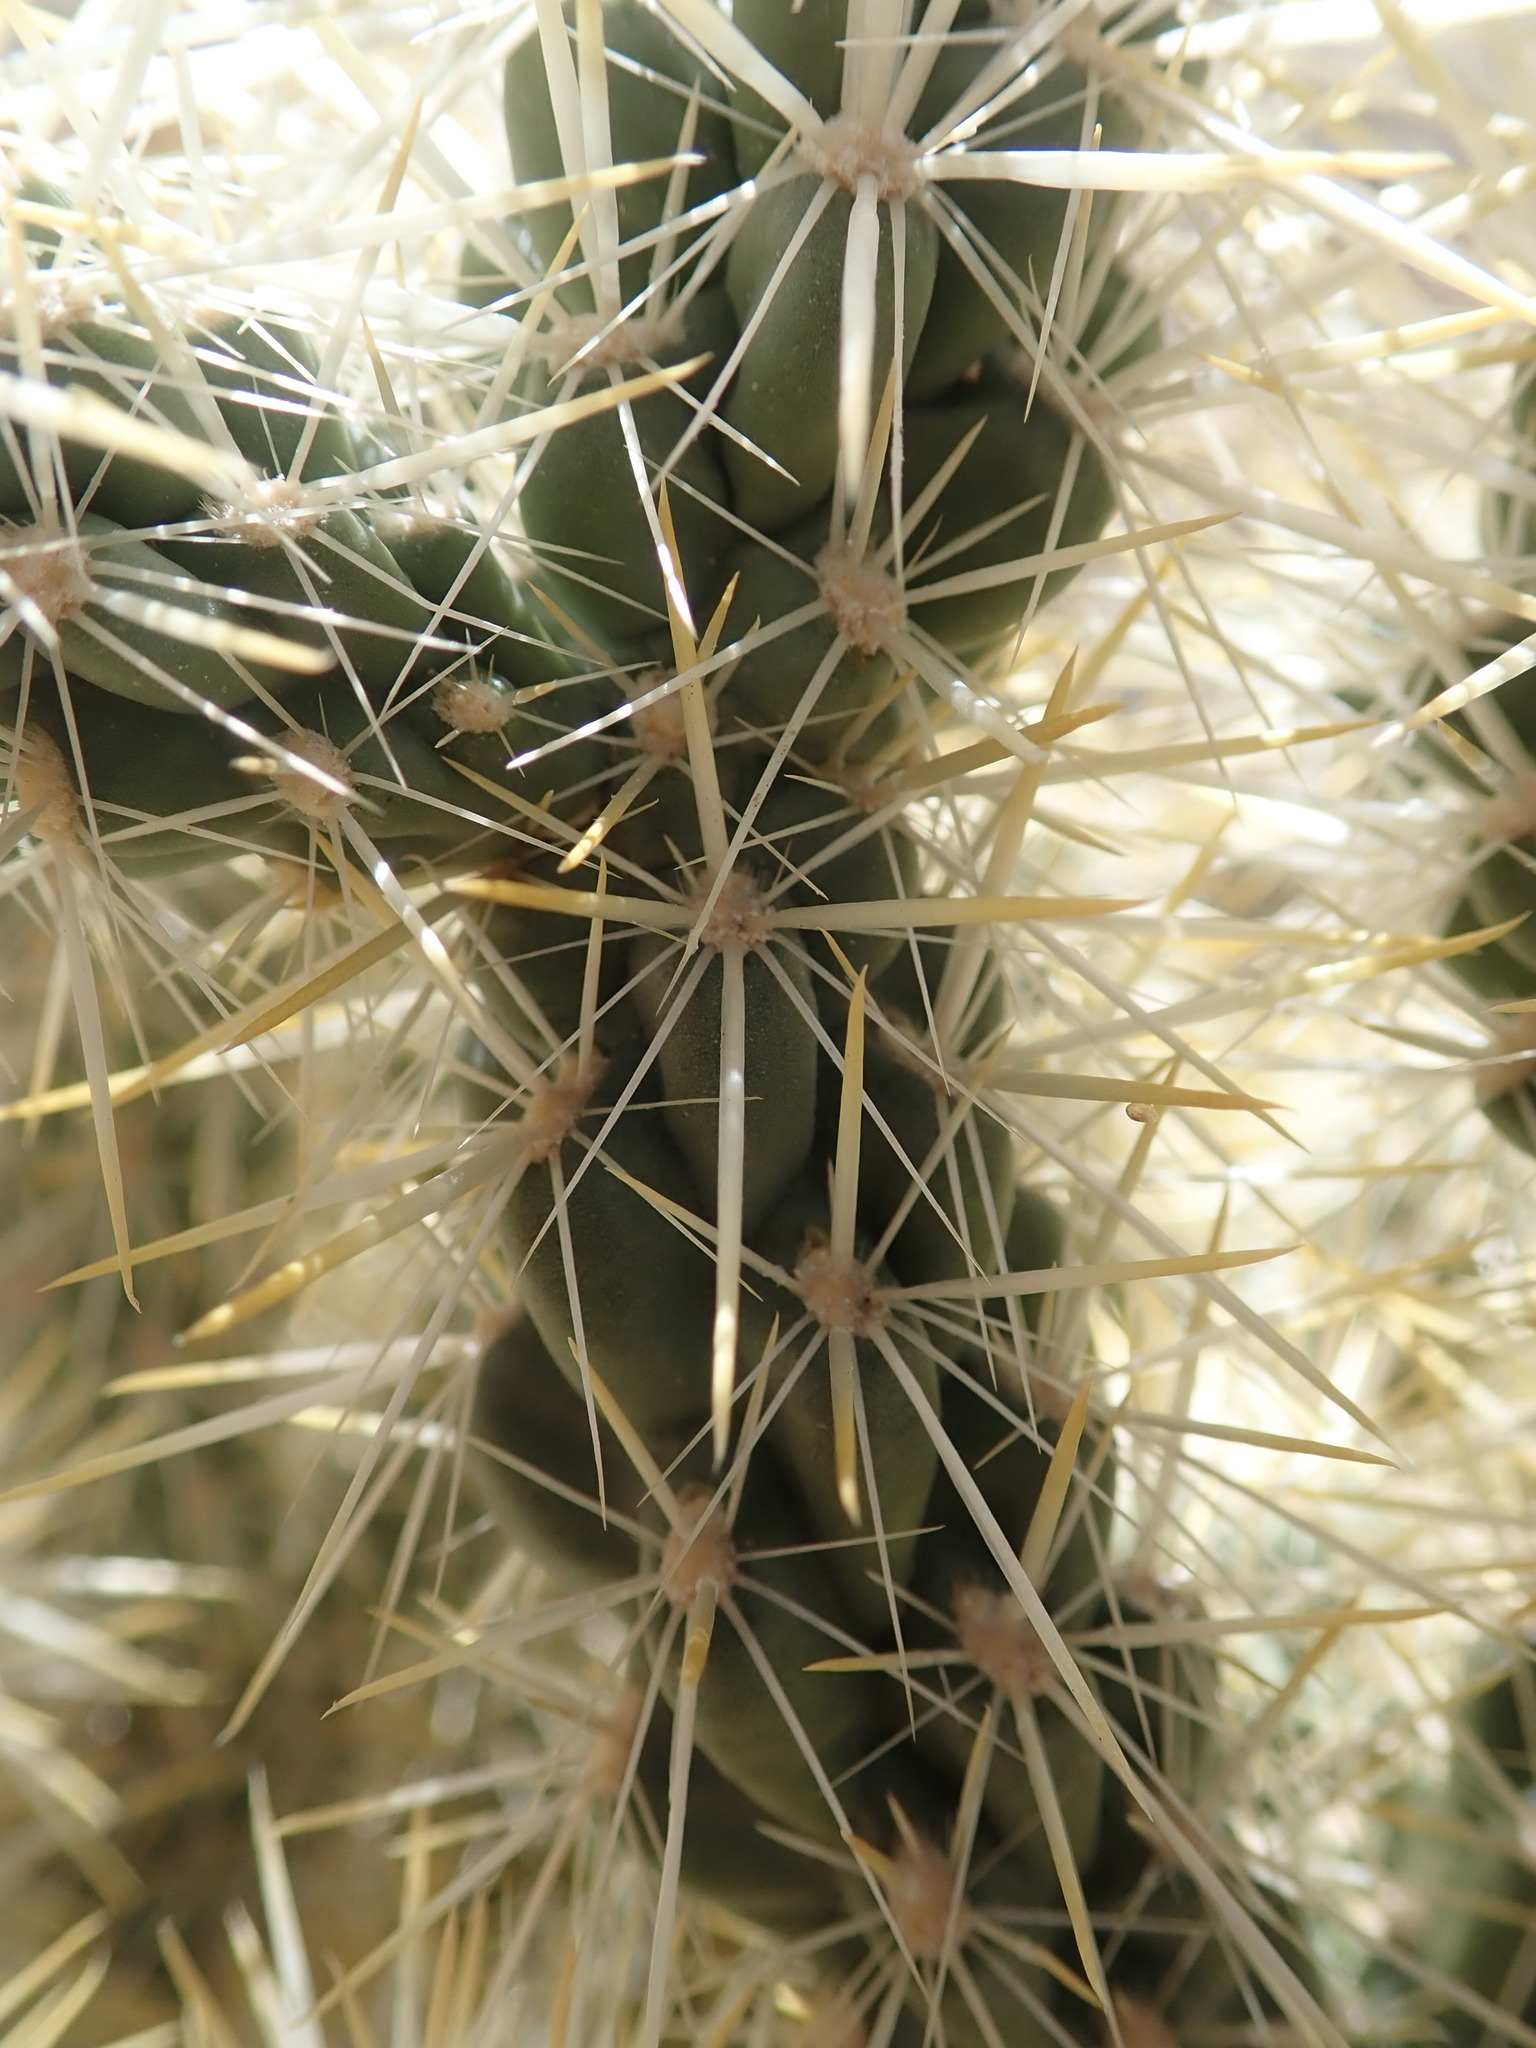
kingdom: Plantae
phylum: Tracheophyta
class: Magnoliopsida
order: Caryophyllales
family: Cactaceae
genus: Cylindropuntia
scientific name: Cylindropuntia echinocarpa
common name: Ground cholla
